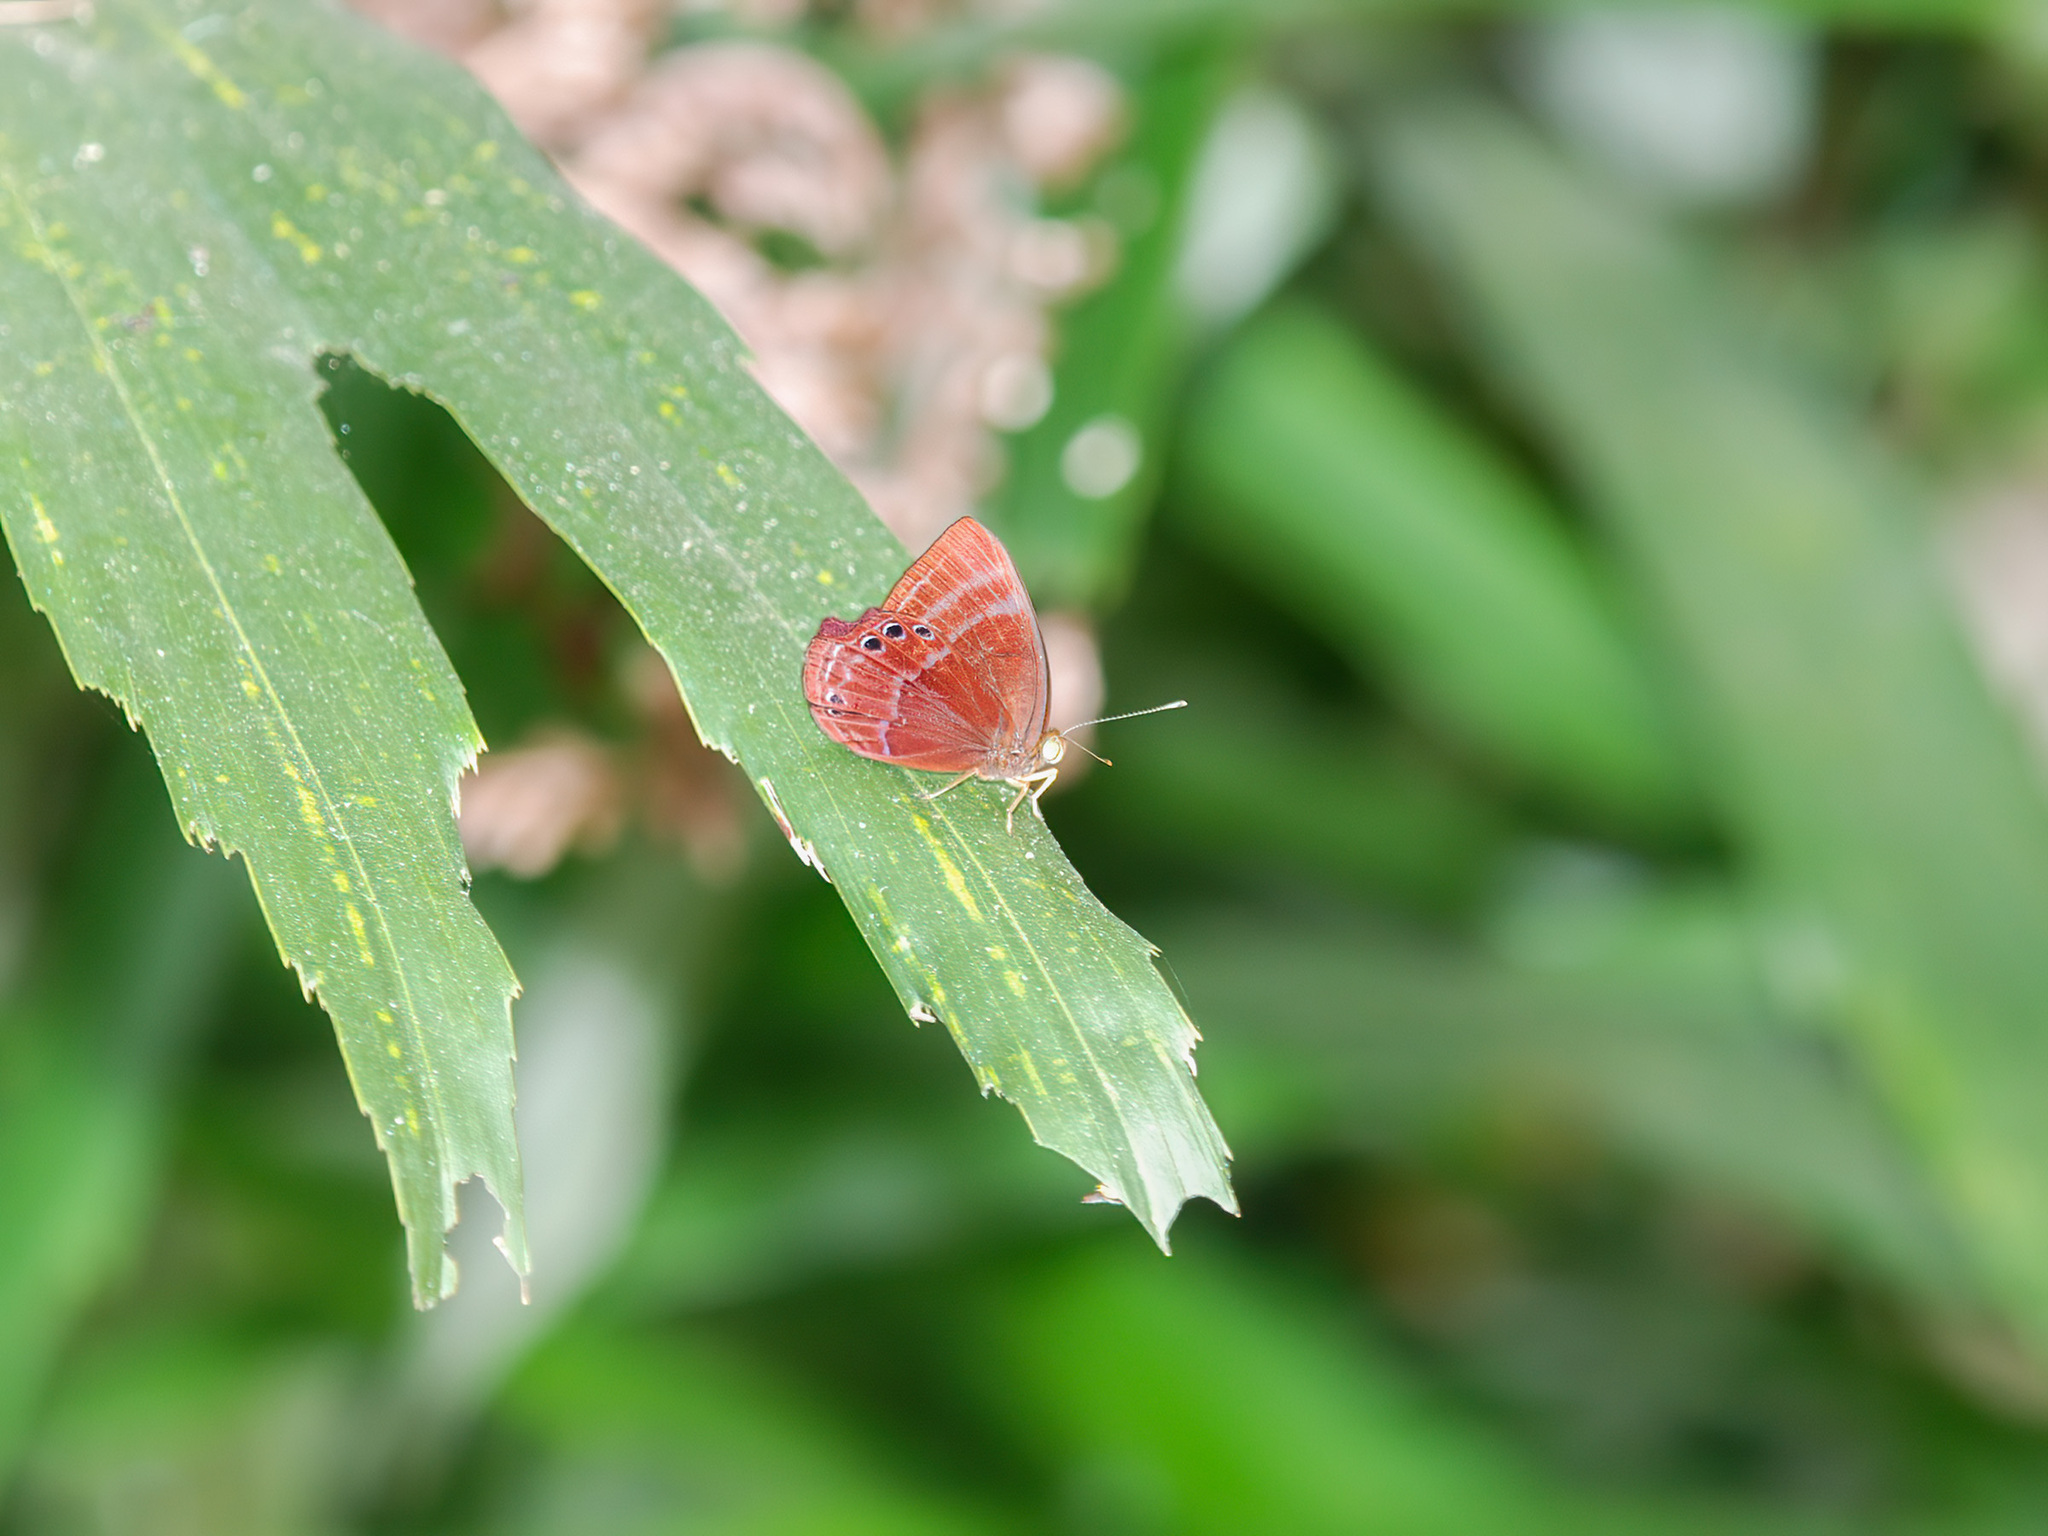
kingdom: Animalia
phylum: Arthropoda
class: Insecta
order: Lepidoptera
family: Lycaenidae
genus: Abisara
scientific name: Abisara saturata
